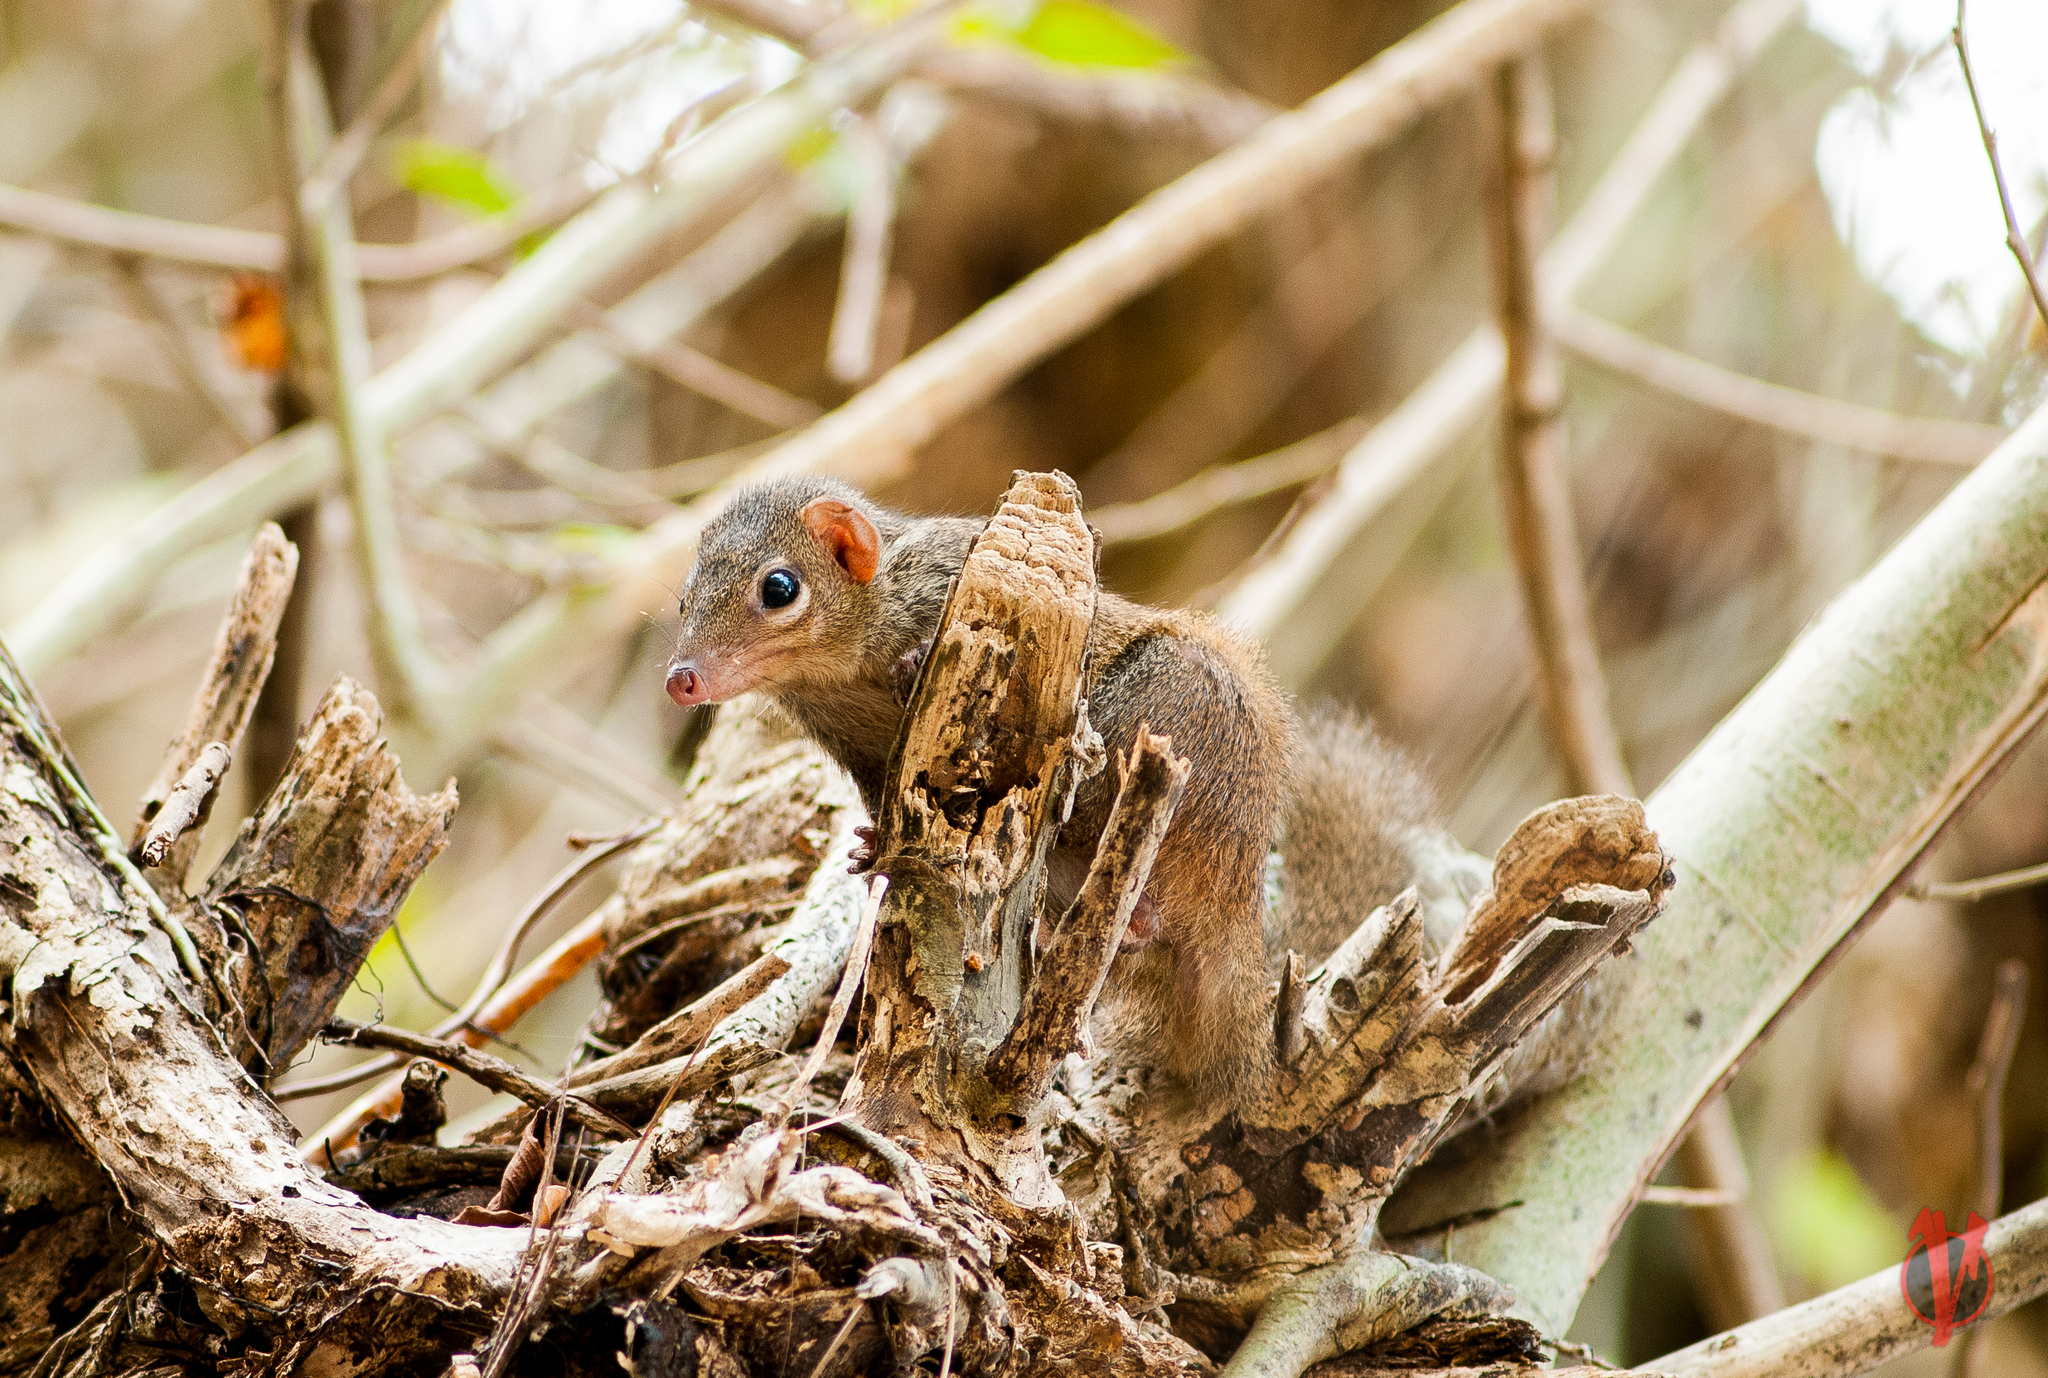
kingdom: Animalia
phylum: Chordata
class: Mammalia
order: Scandentia
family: Tupaiidae
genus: Tupaia
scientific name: Tupaia belangeri
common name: Northern treeshrew
